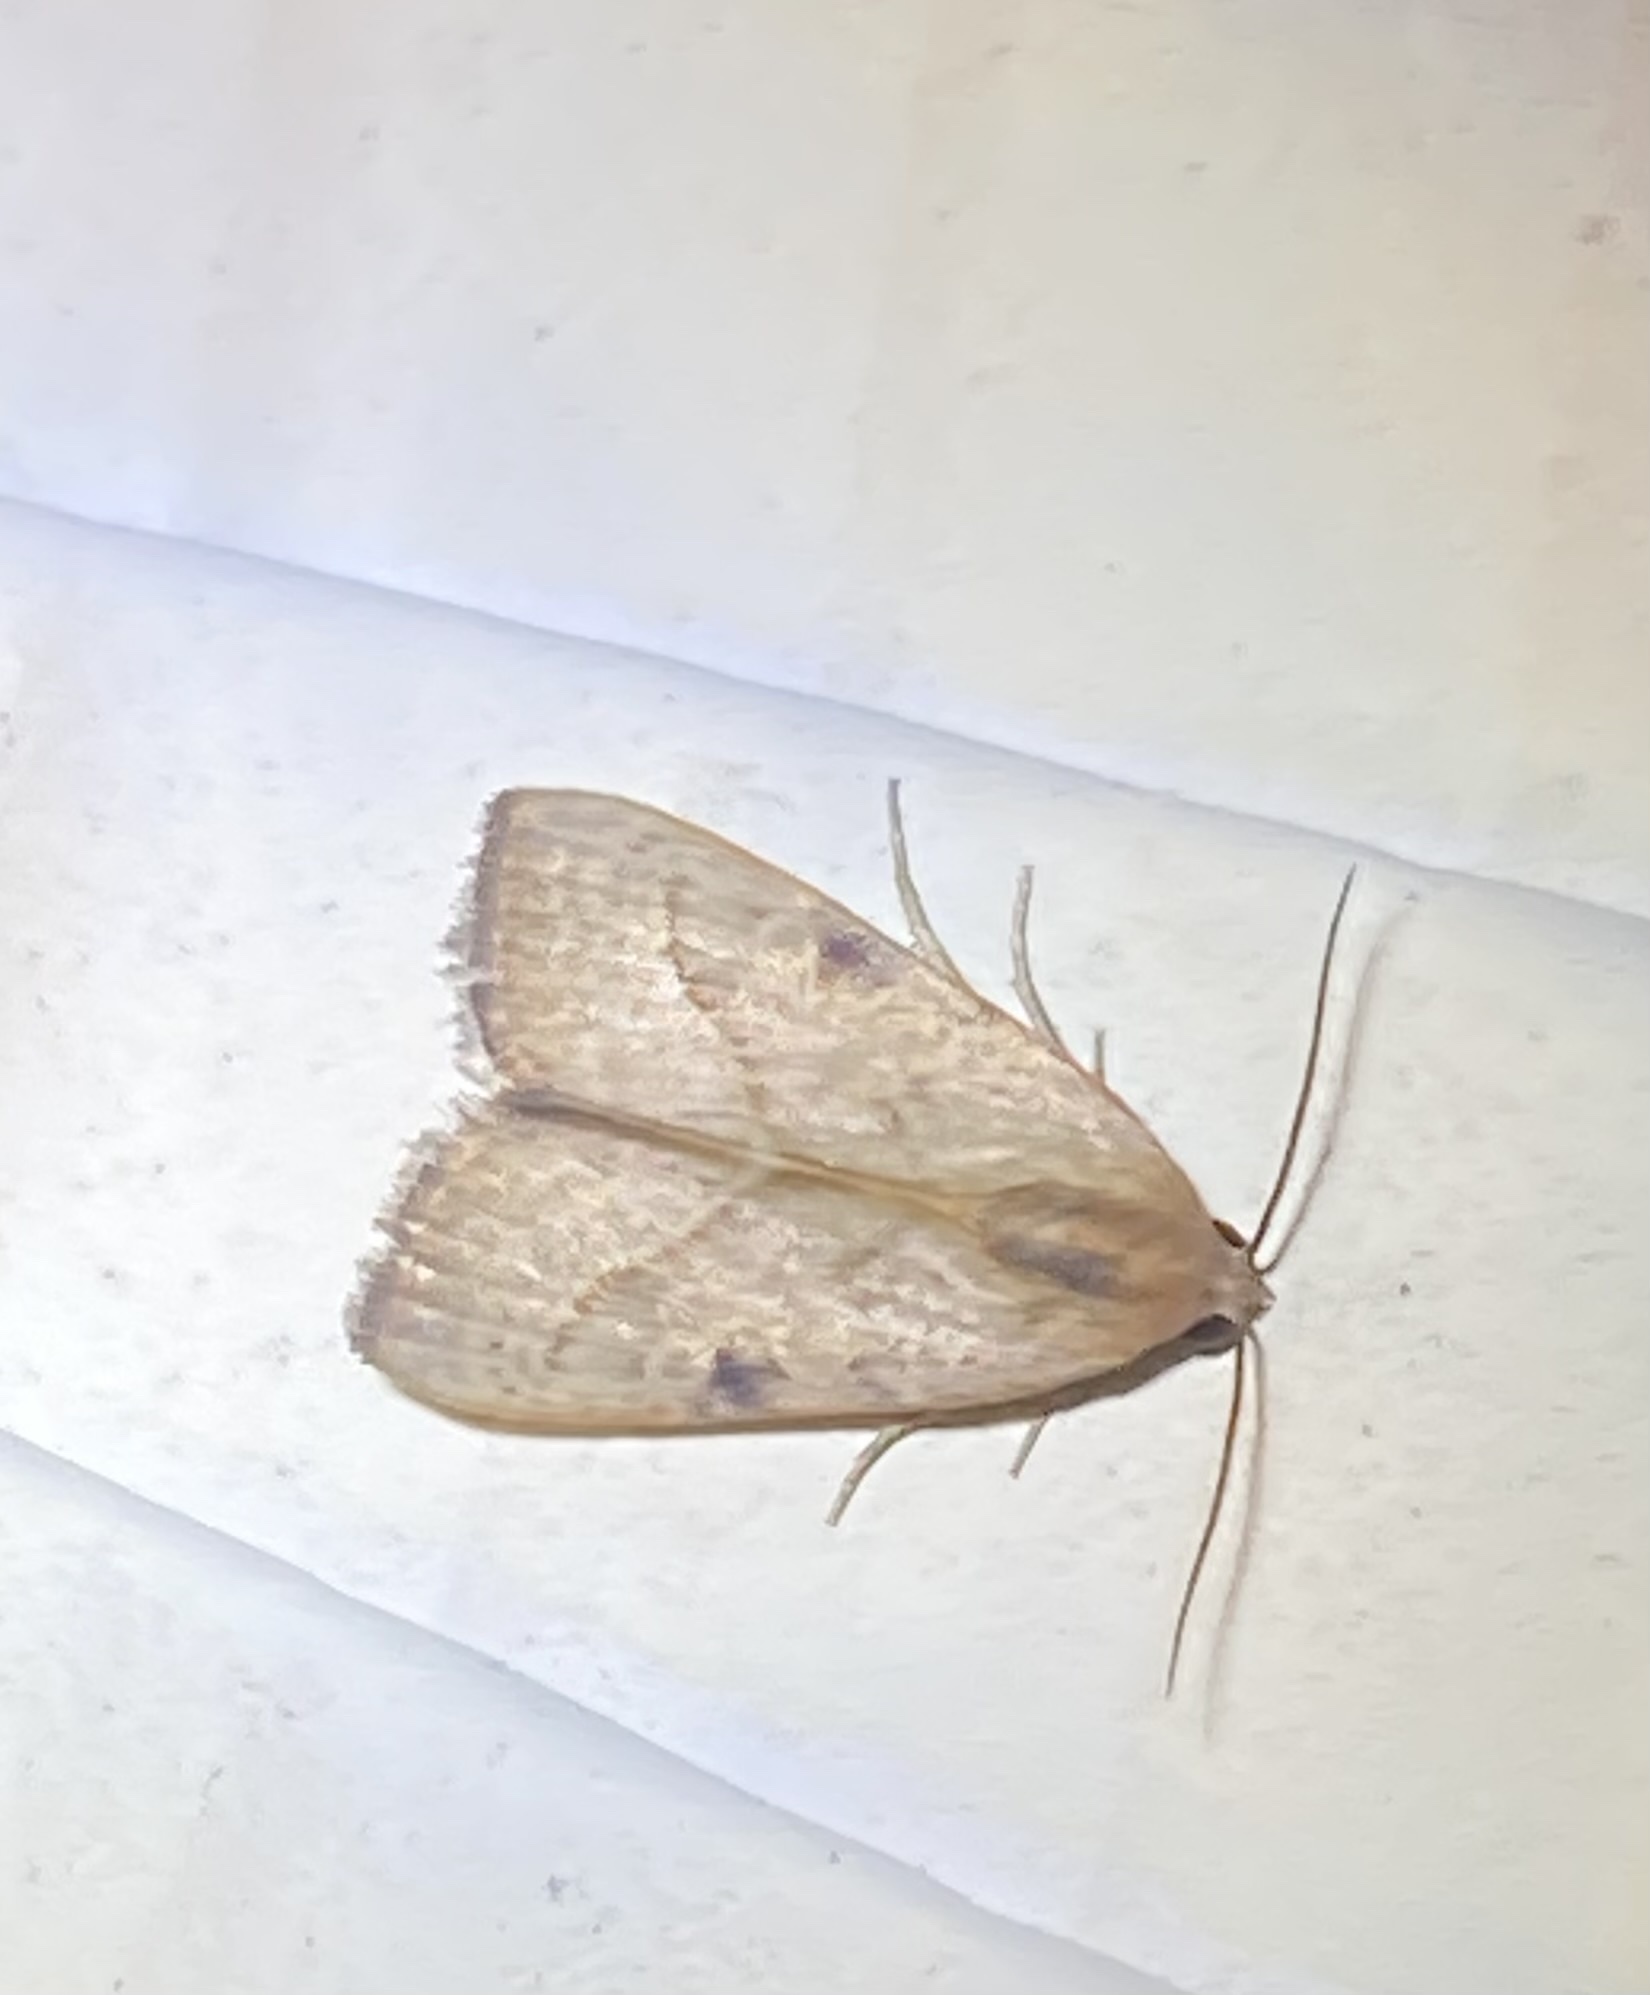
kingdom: Animalia
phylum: Arthropoda
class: Insecta
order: Lepidoptera
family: Noctuidae
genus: Galgula
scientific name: Galgula partita
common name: Wedgeling
